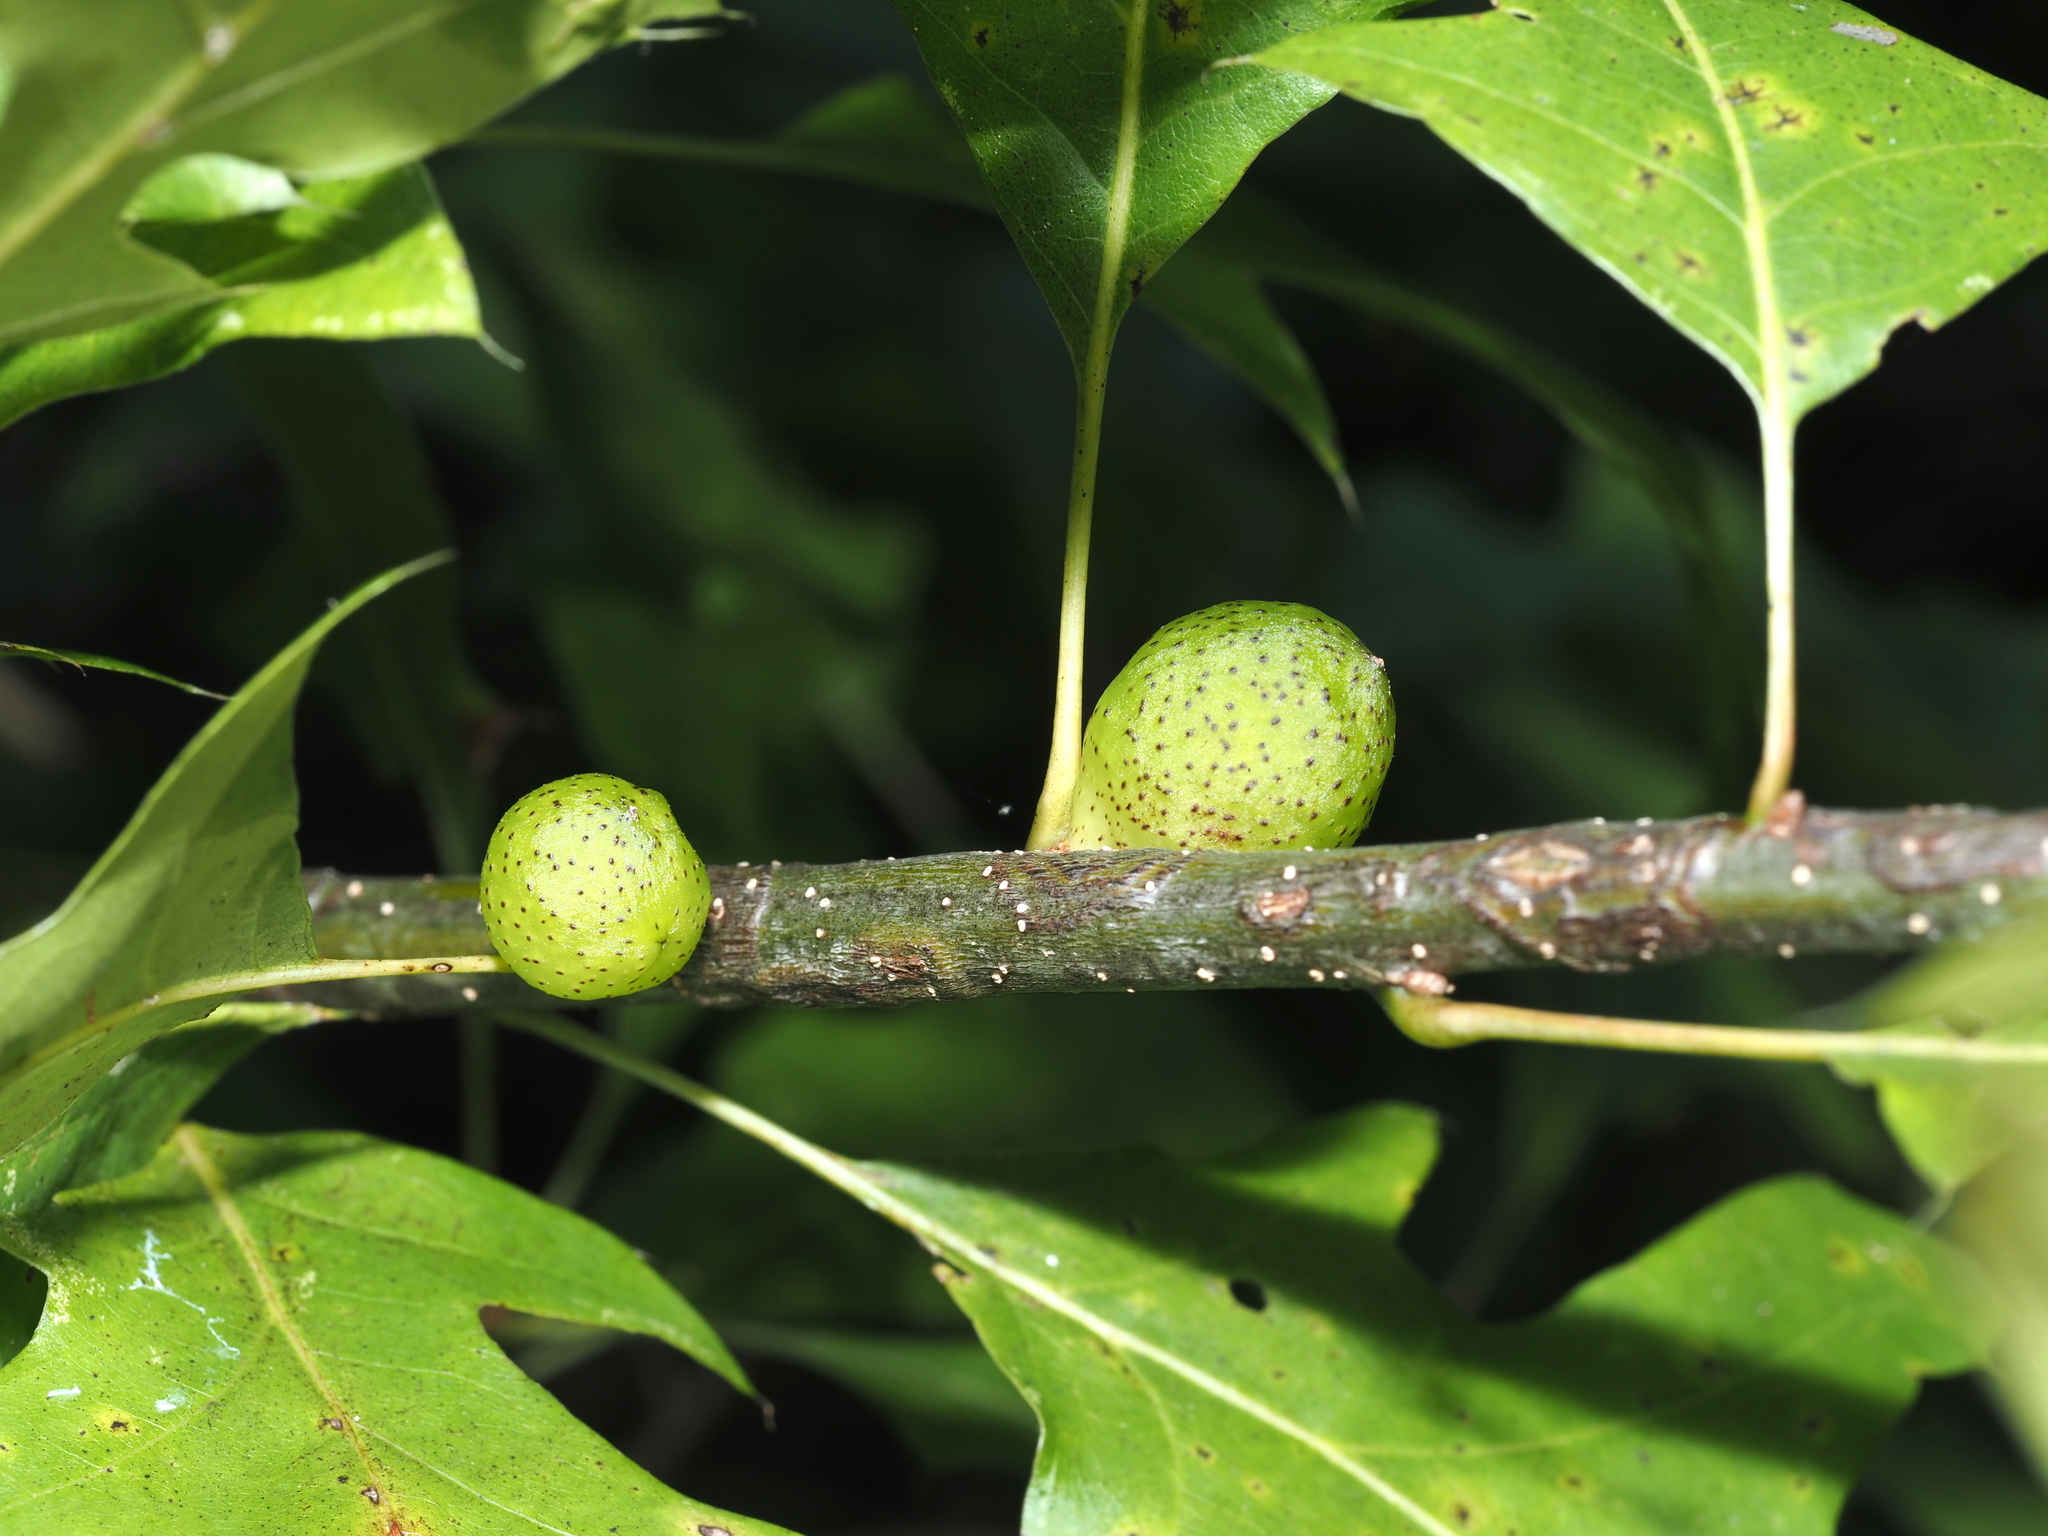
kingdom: Animalia
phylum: Arthropoda
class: Insecta
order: Hymenoptera
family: Cynipidae
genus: Amphibolips
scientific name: Amphibolips
